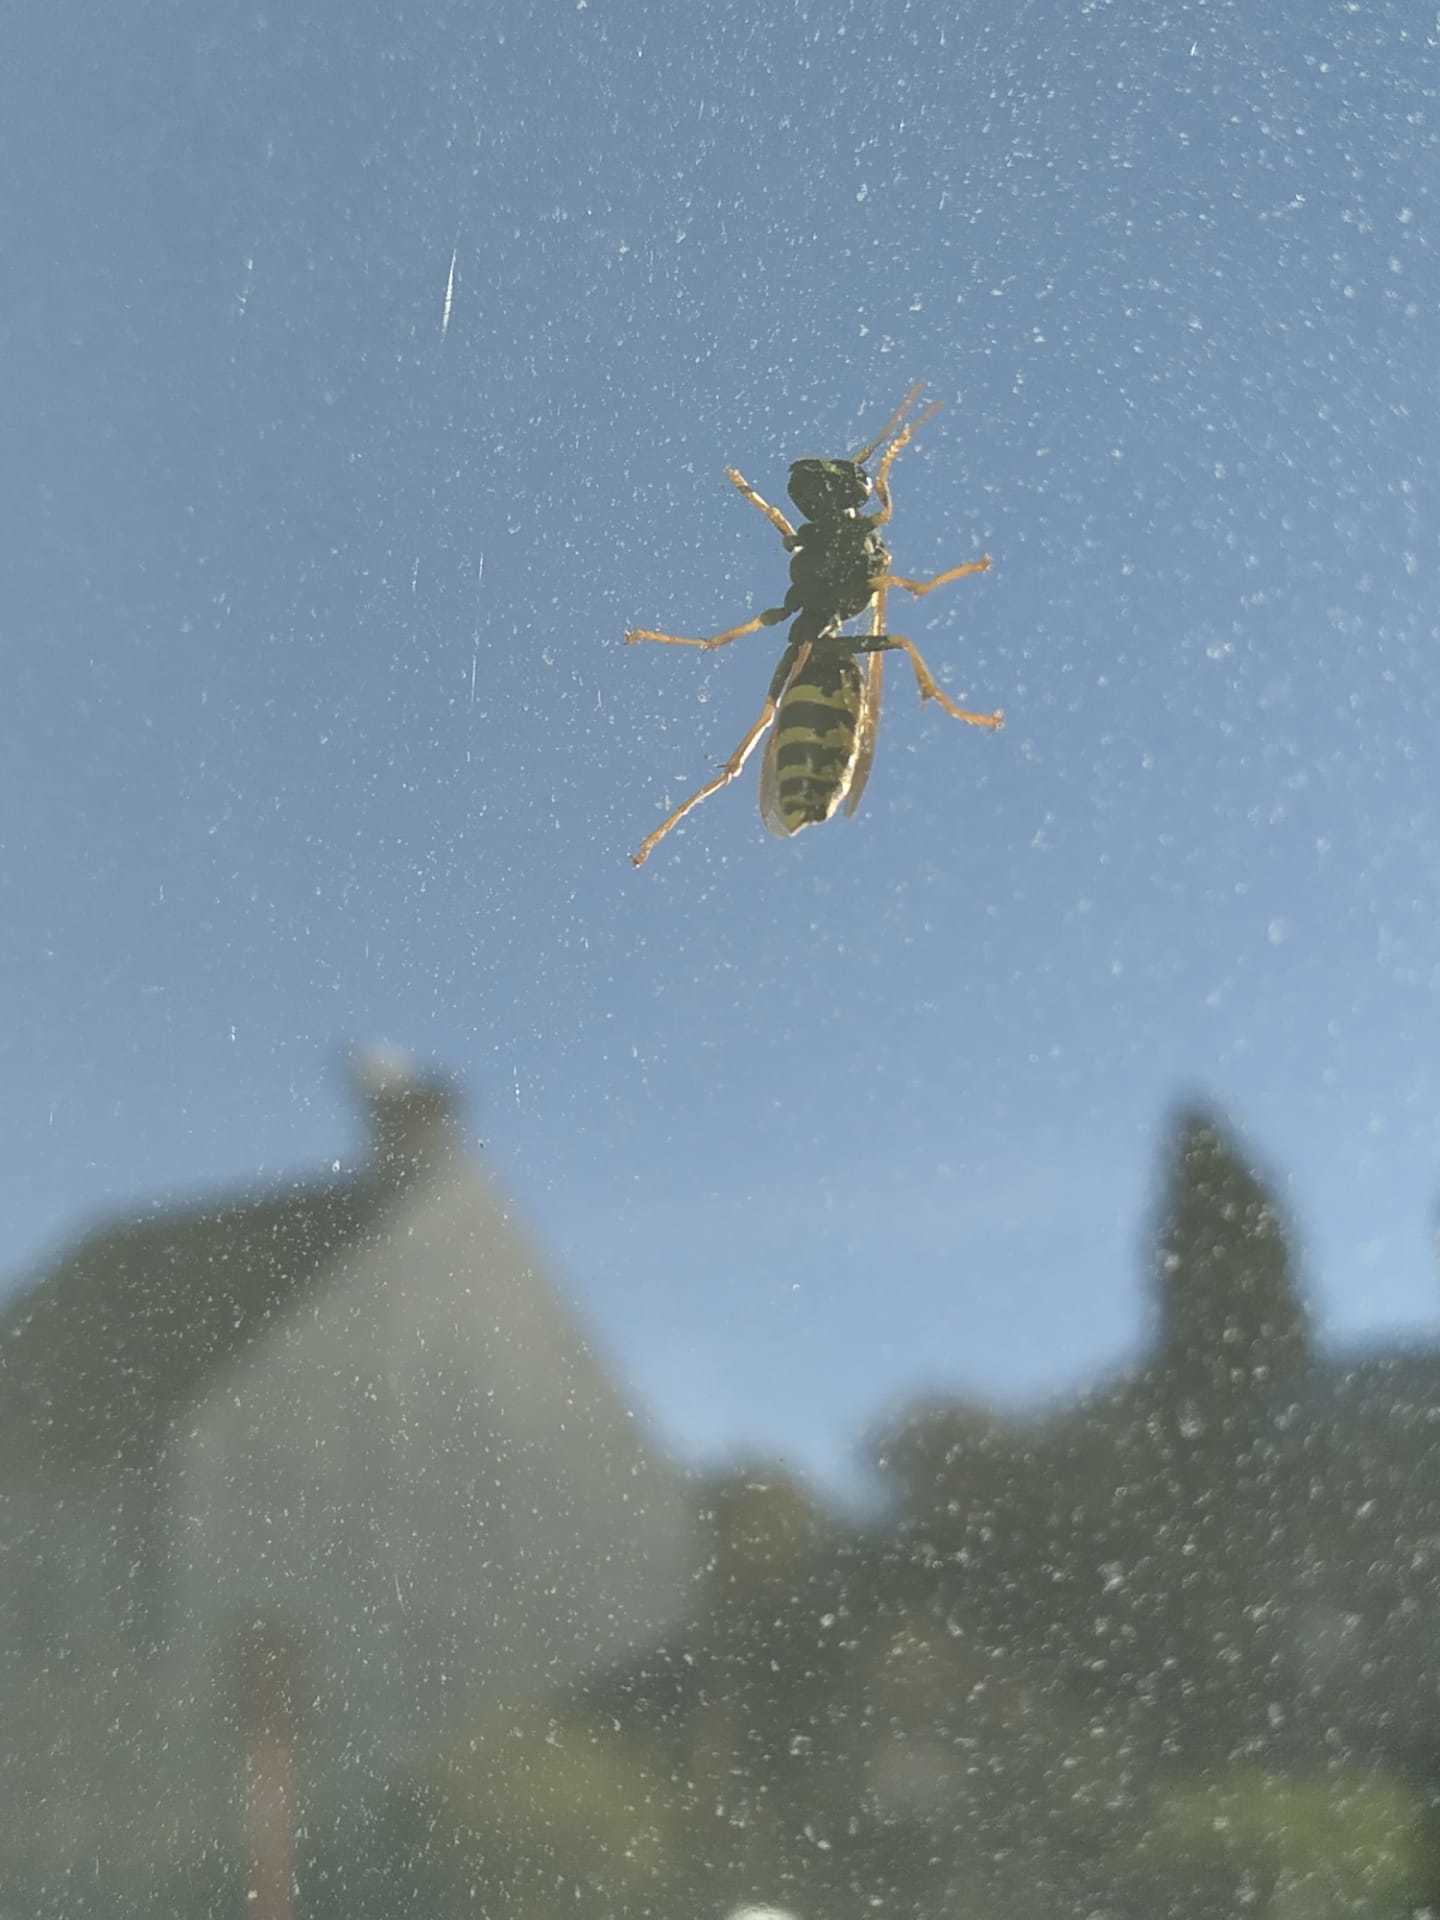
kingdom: Animalia
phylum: Arthropoda
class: Insecta
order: Hymenoptera
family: Eumenidae
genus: Polistes
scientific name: Polistes
